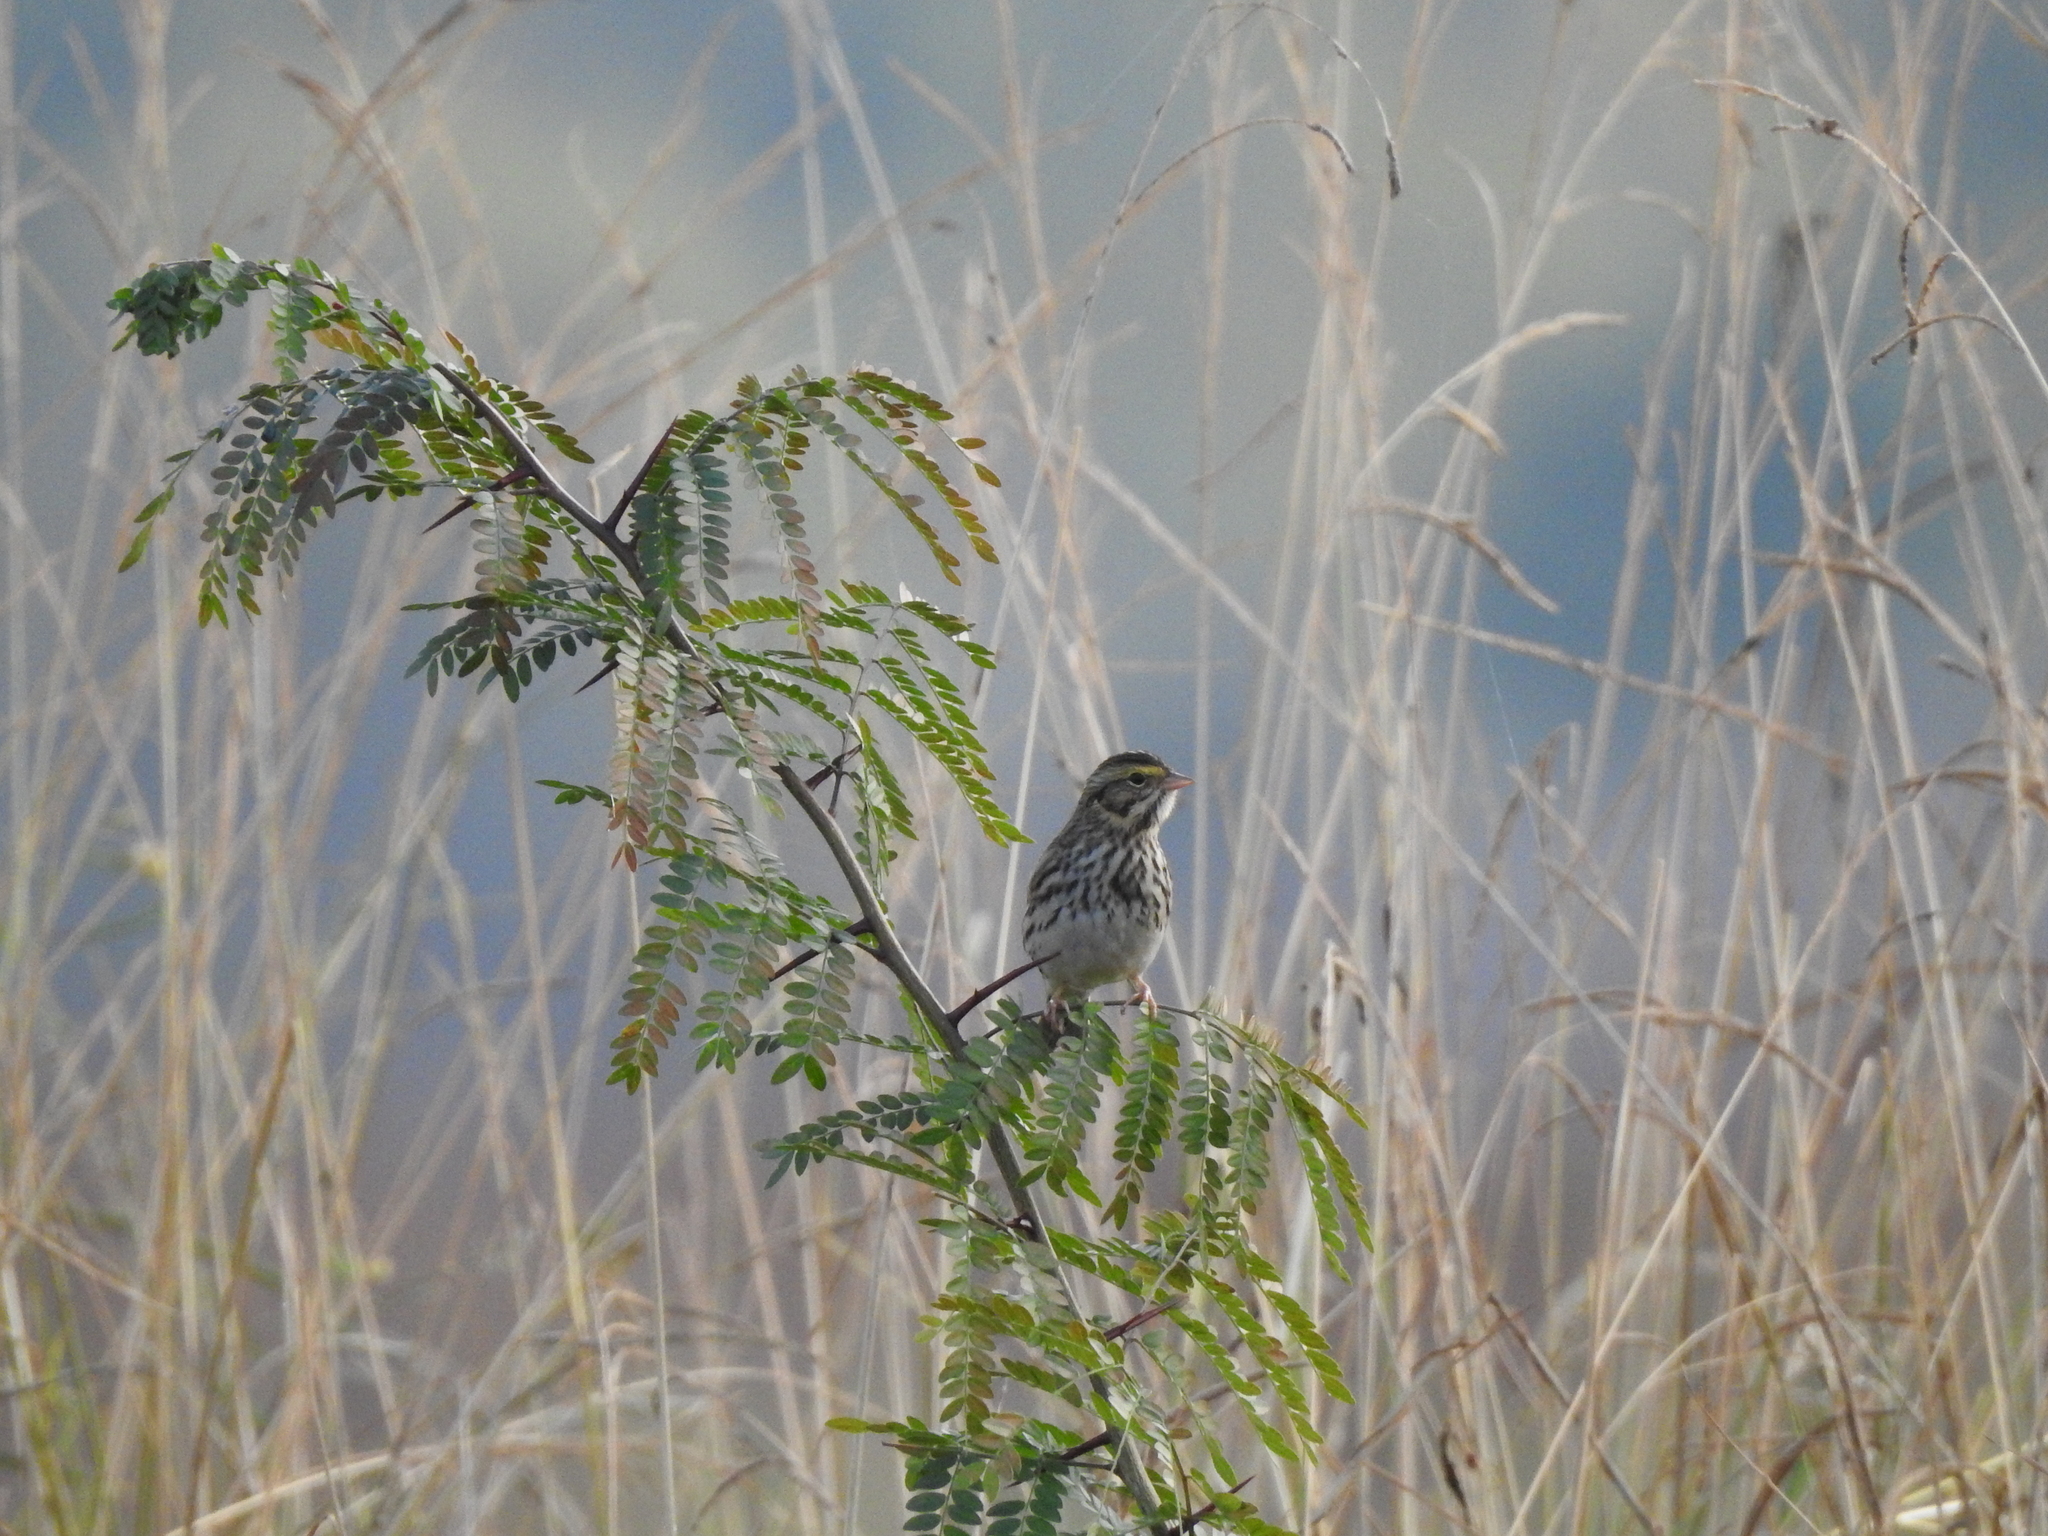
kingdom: Animalia
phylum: Chordata
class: Aves
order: Passeriformes
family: Passerellidae
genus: Passerculus
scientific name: Passerculus sandwichensis
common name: Savannah sparrow
